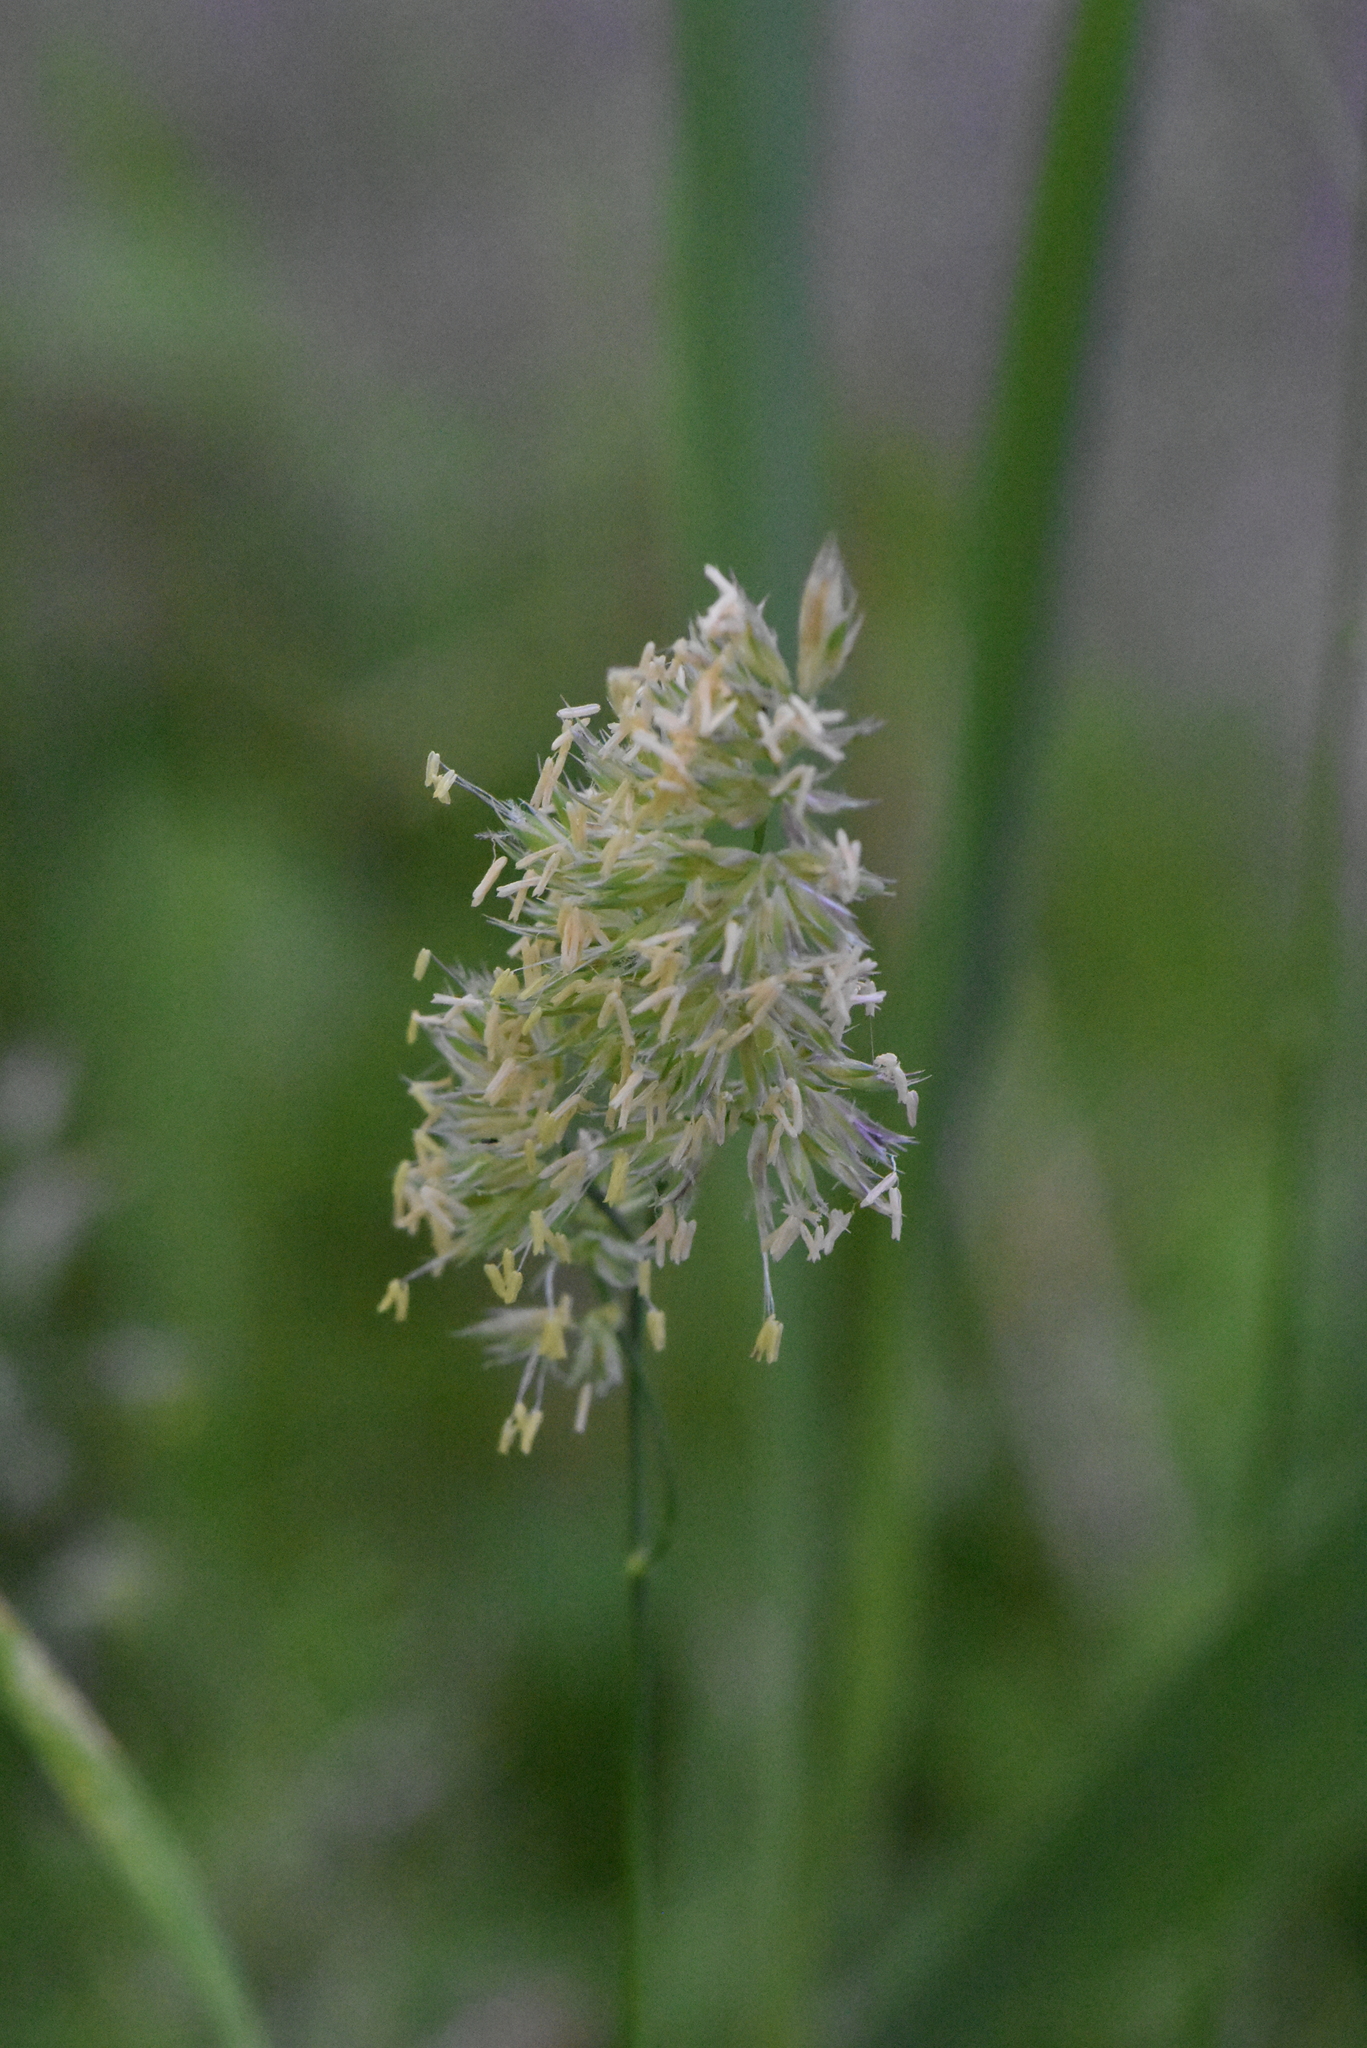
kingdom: Plantae
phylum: Tracheophyta
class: Liliopsida
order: Poales
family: Poaceae
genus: Dactylis
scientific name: Dactylis glomerata
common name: Orchardgrass
